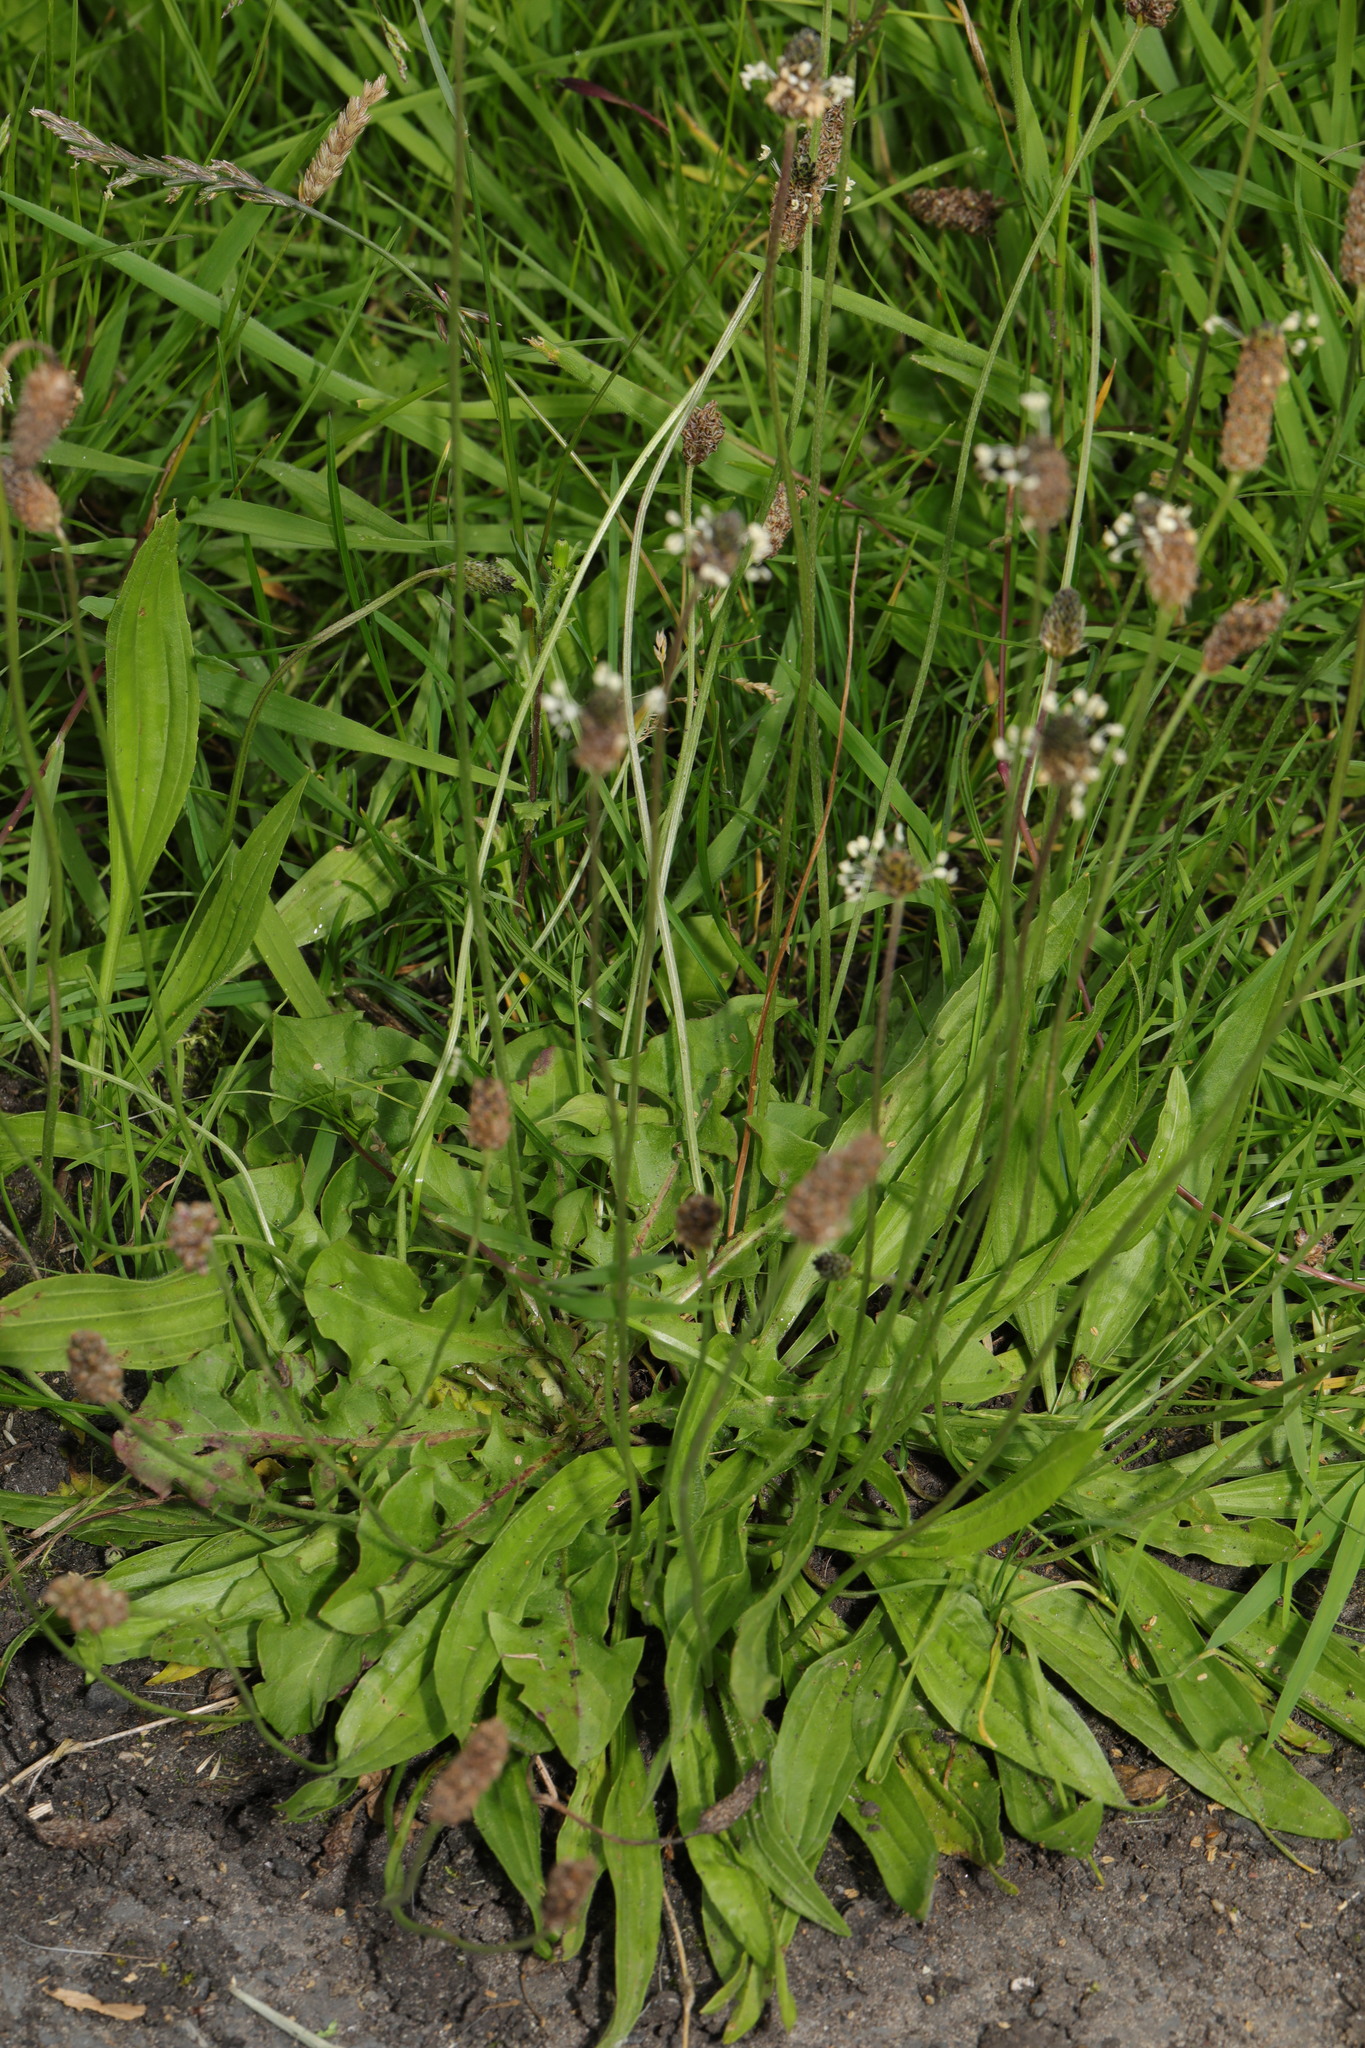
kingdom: Plantae
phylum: Tracheophyta
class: Magnoliopsida
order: Lamiales
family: Plantaginaceae
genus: Plantago
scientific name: Plantago lanceolata
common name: Ribwort plantain
